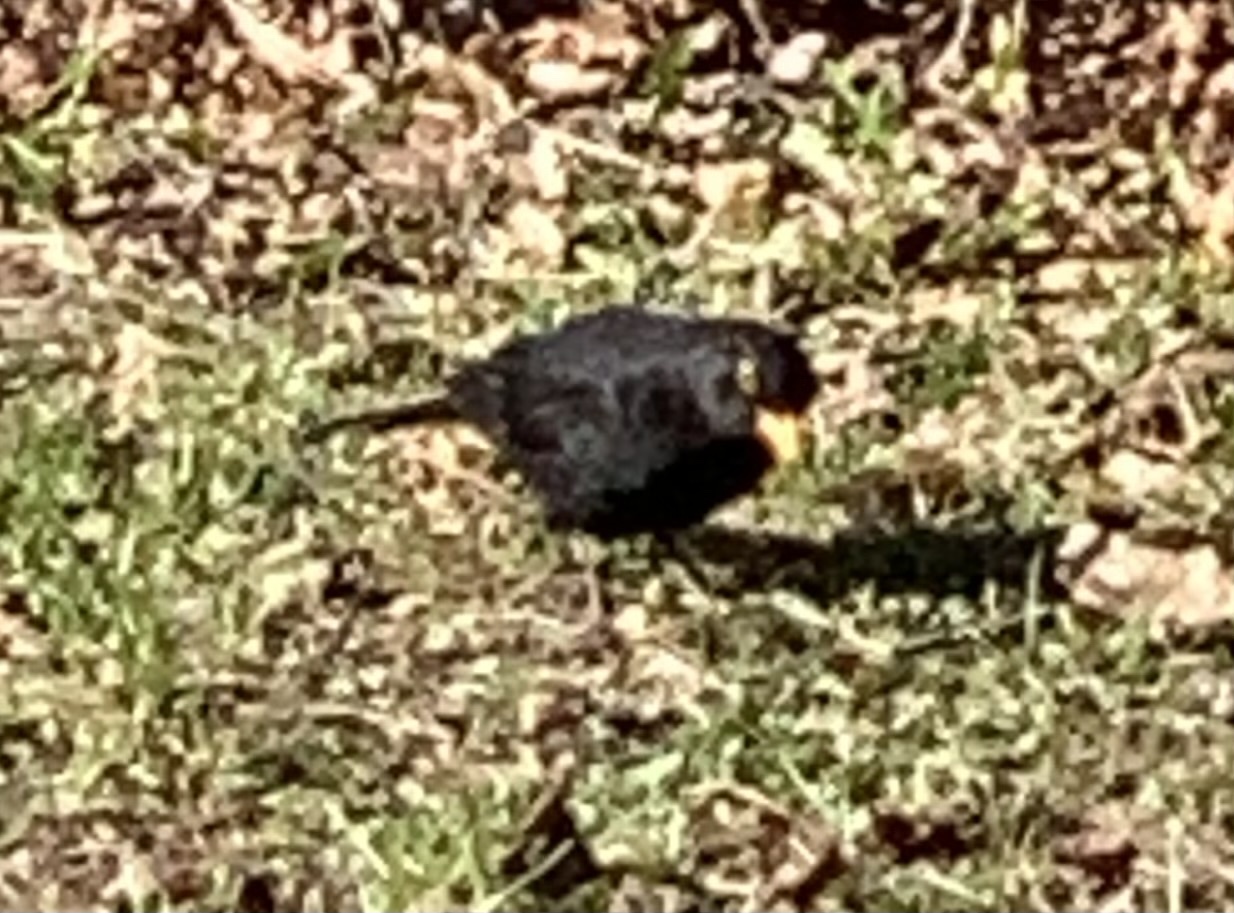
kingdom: Animalia
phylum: Chordata
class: Aves
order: Passeriformes
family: Turdidae
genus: Turdus
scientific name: Turdus merula
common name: Common blackbird
